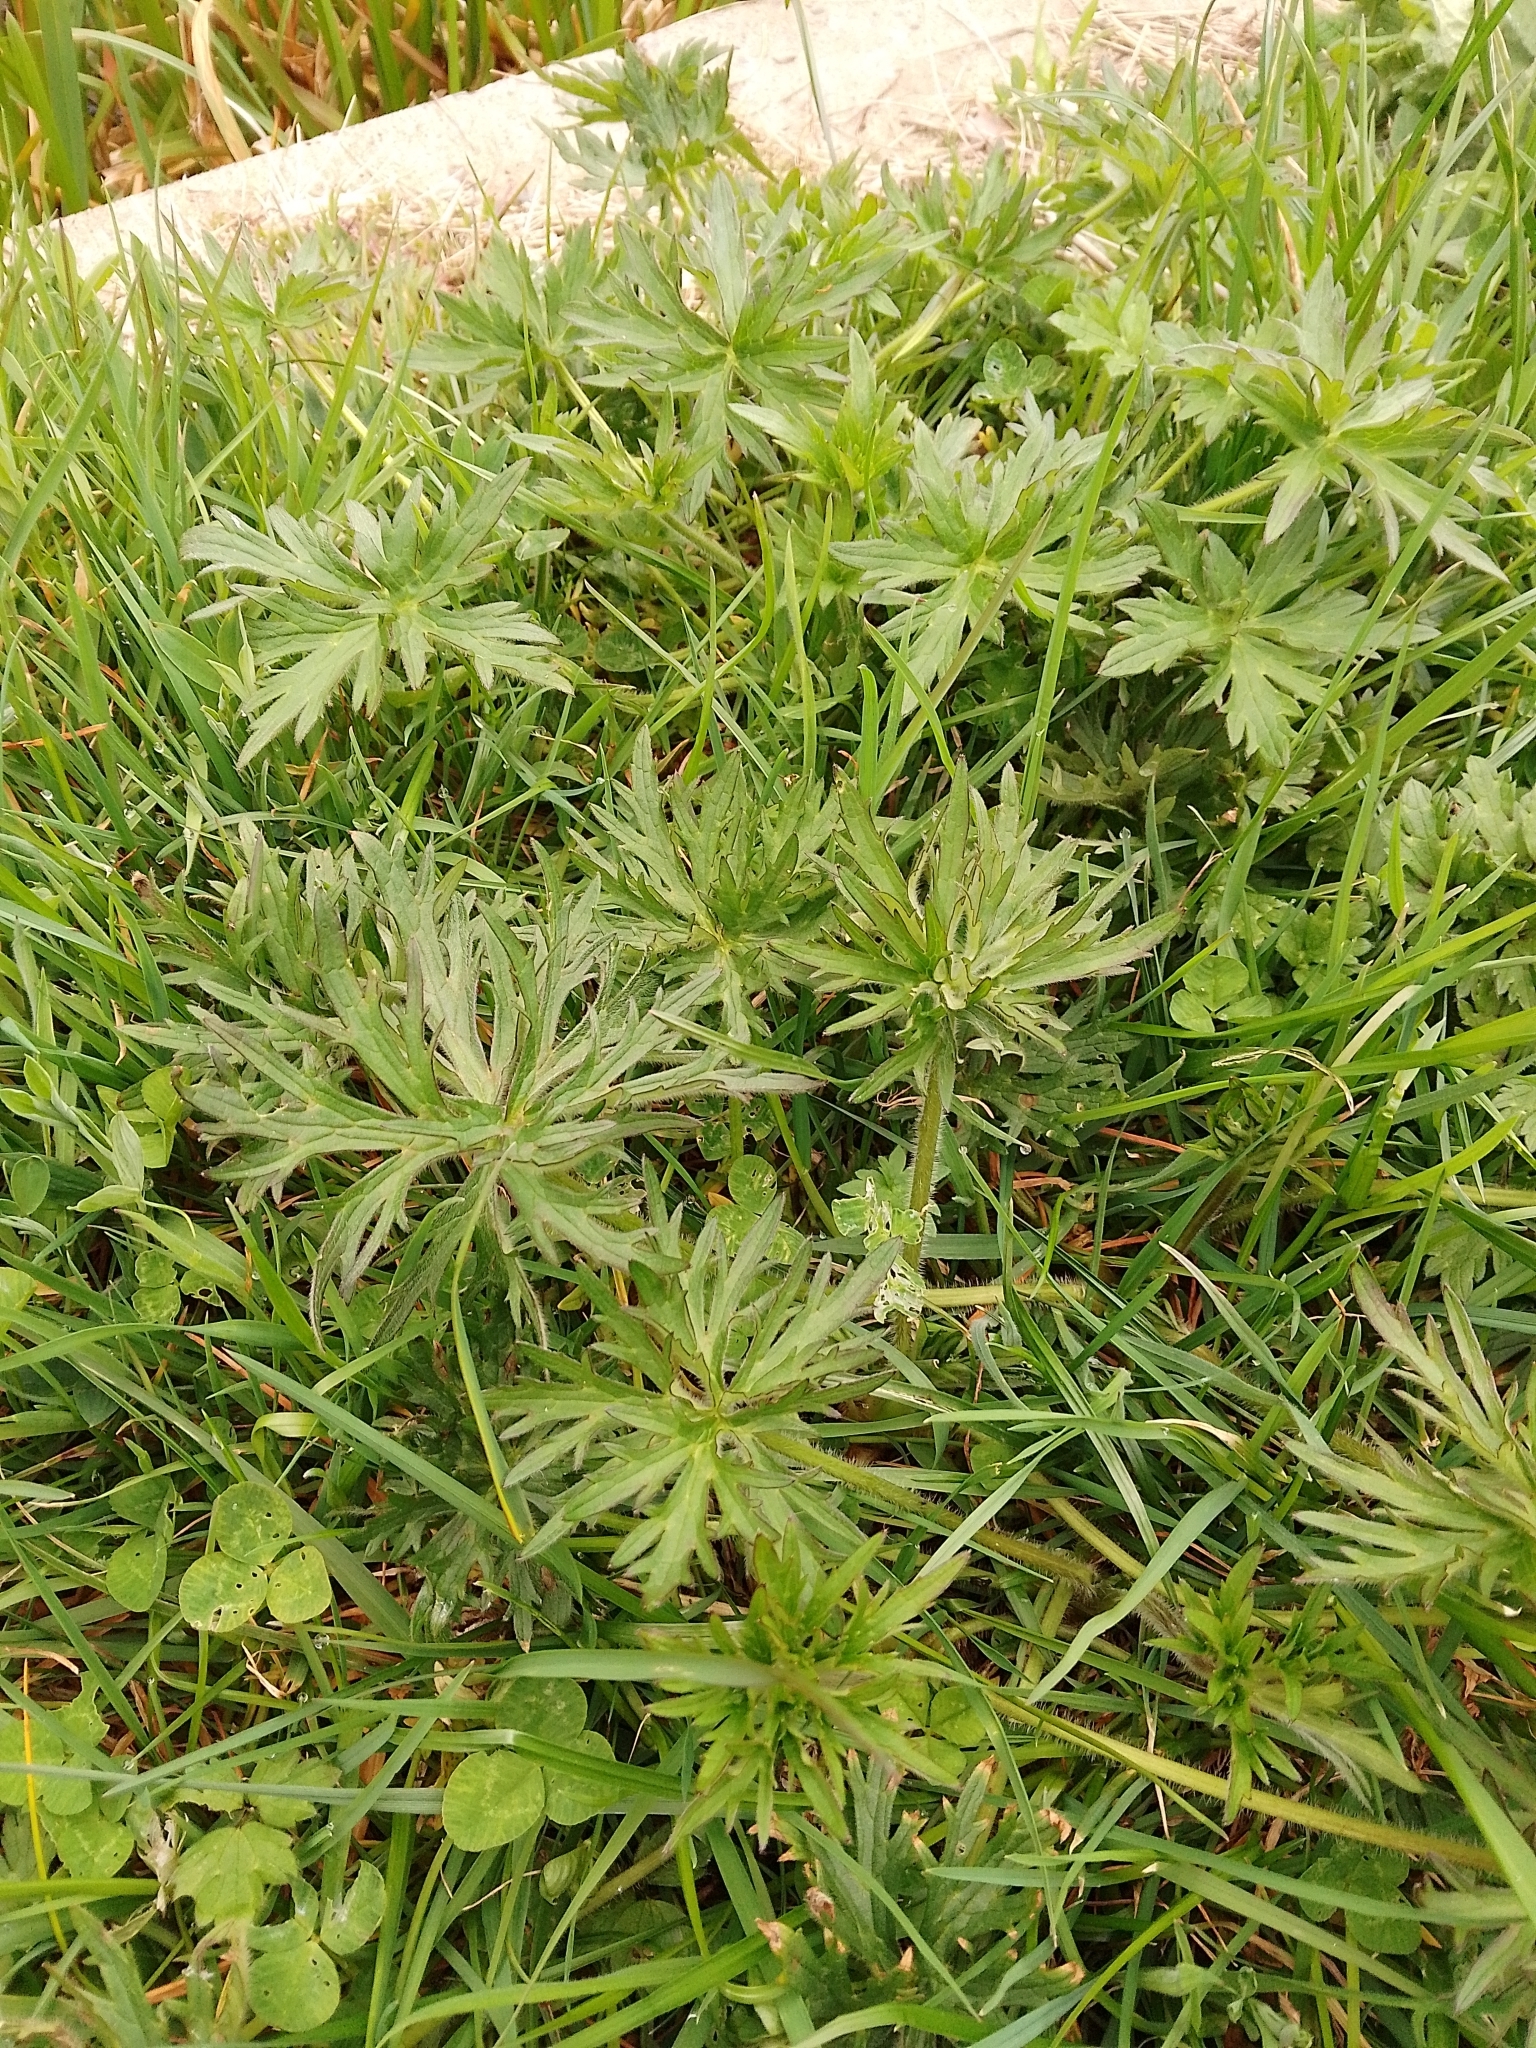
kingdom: Plantae
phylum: Tracheophyta
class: Magnoliopsida
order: Ranunculales
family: Ranunculaceae
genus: Ranunculus
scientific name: Ranunculus acris
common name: Meadow buttercup
